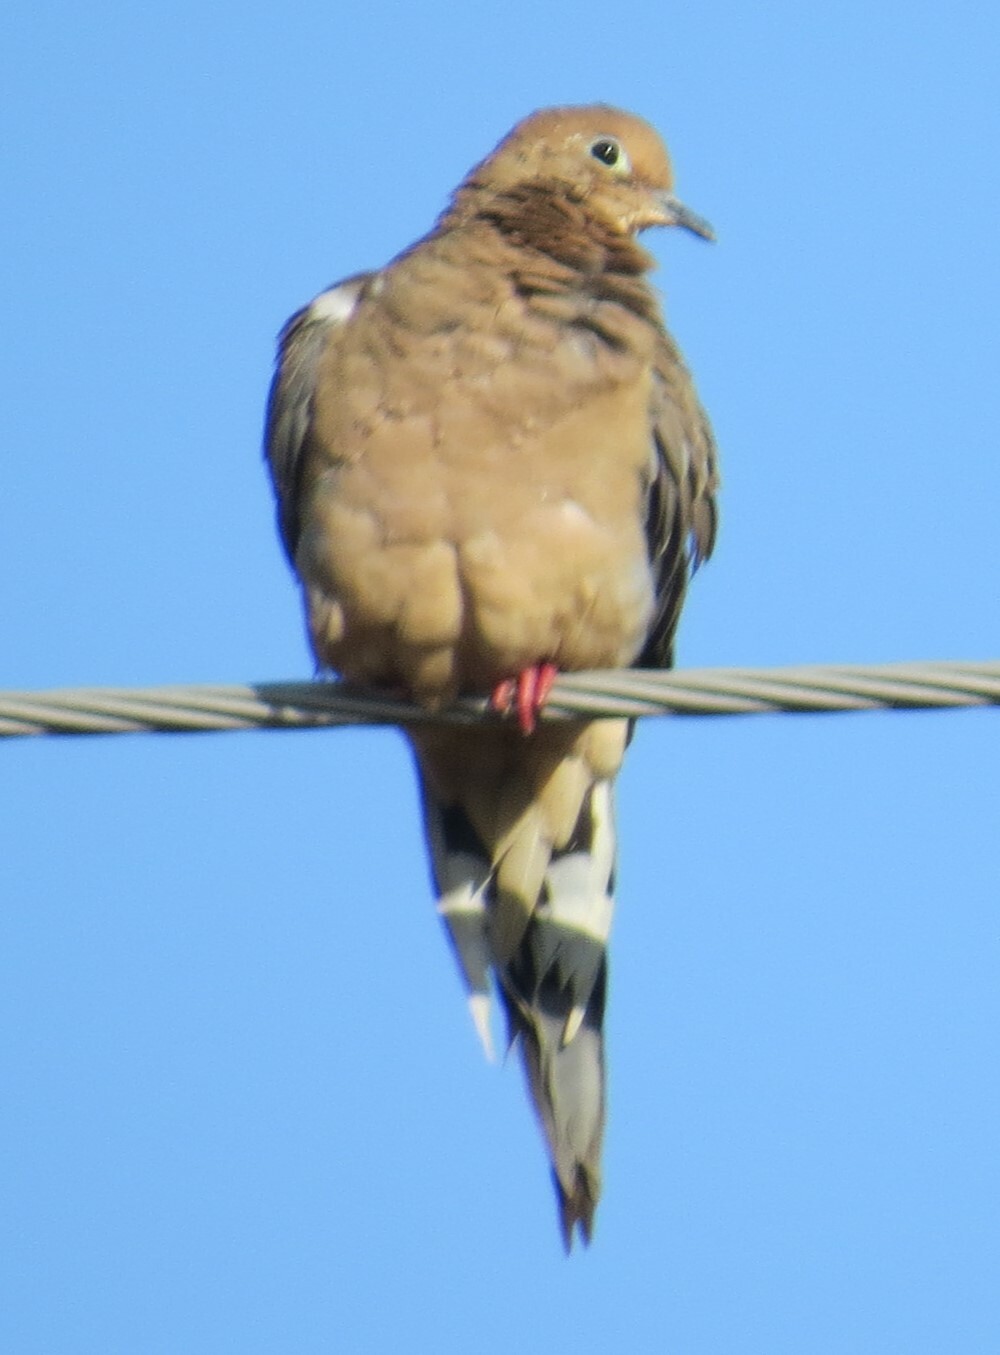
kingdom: Animalia
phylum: Chordata
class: Aves
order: Columbiformes
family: Columbidae
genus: Zenaida
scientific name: Zenaida macroura
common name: Mourning dove
